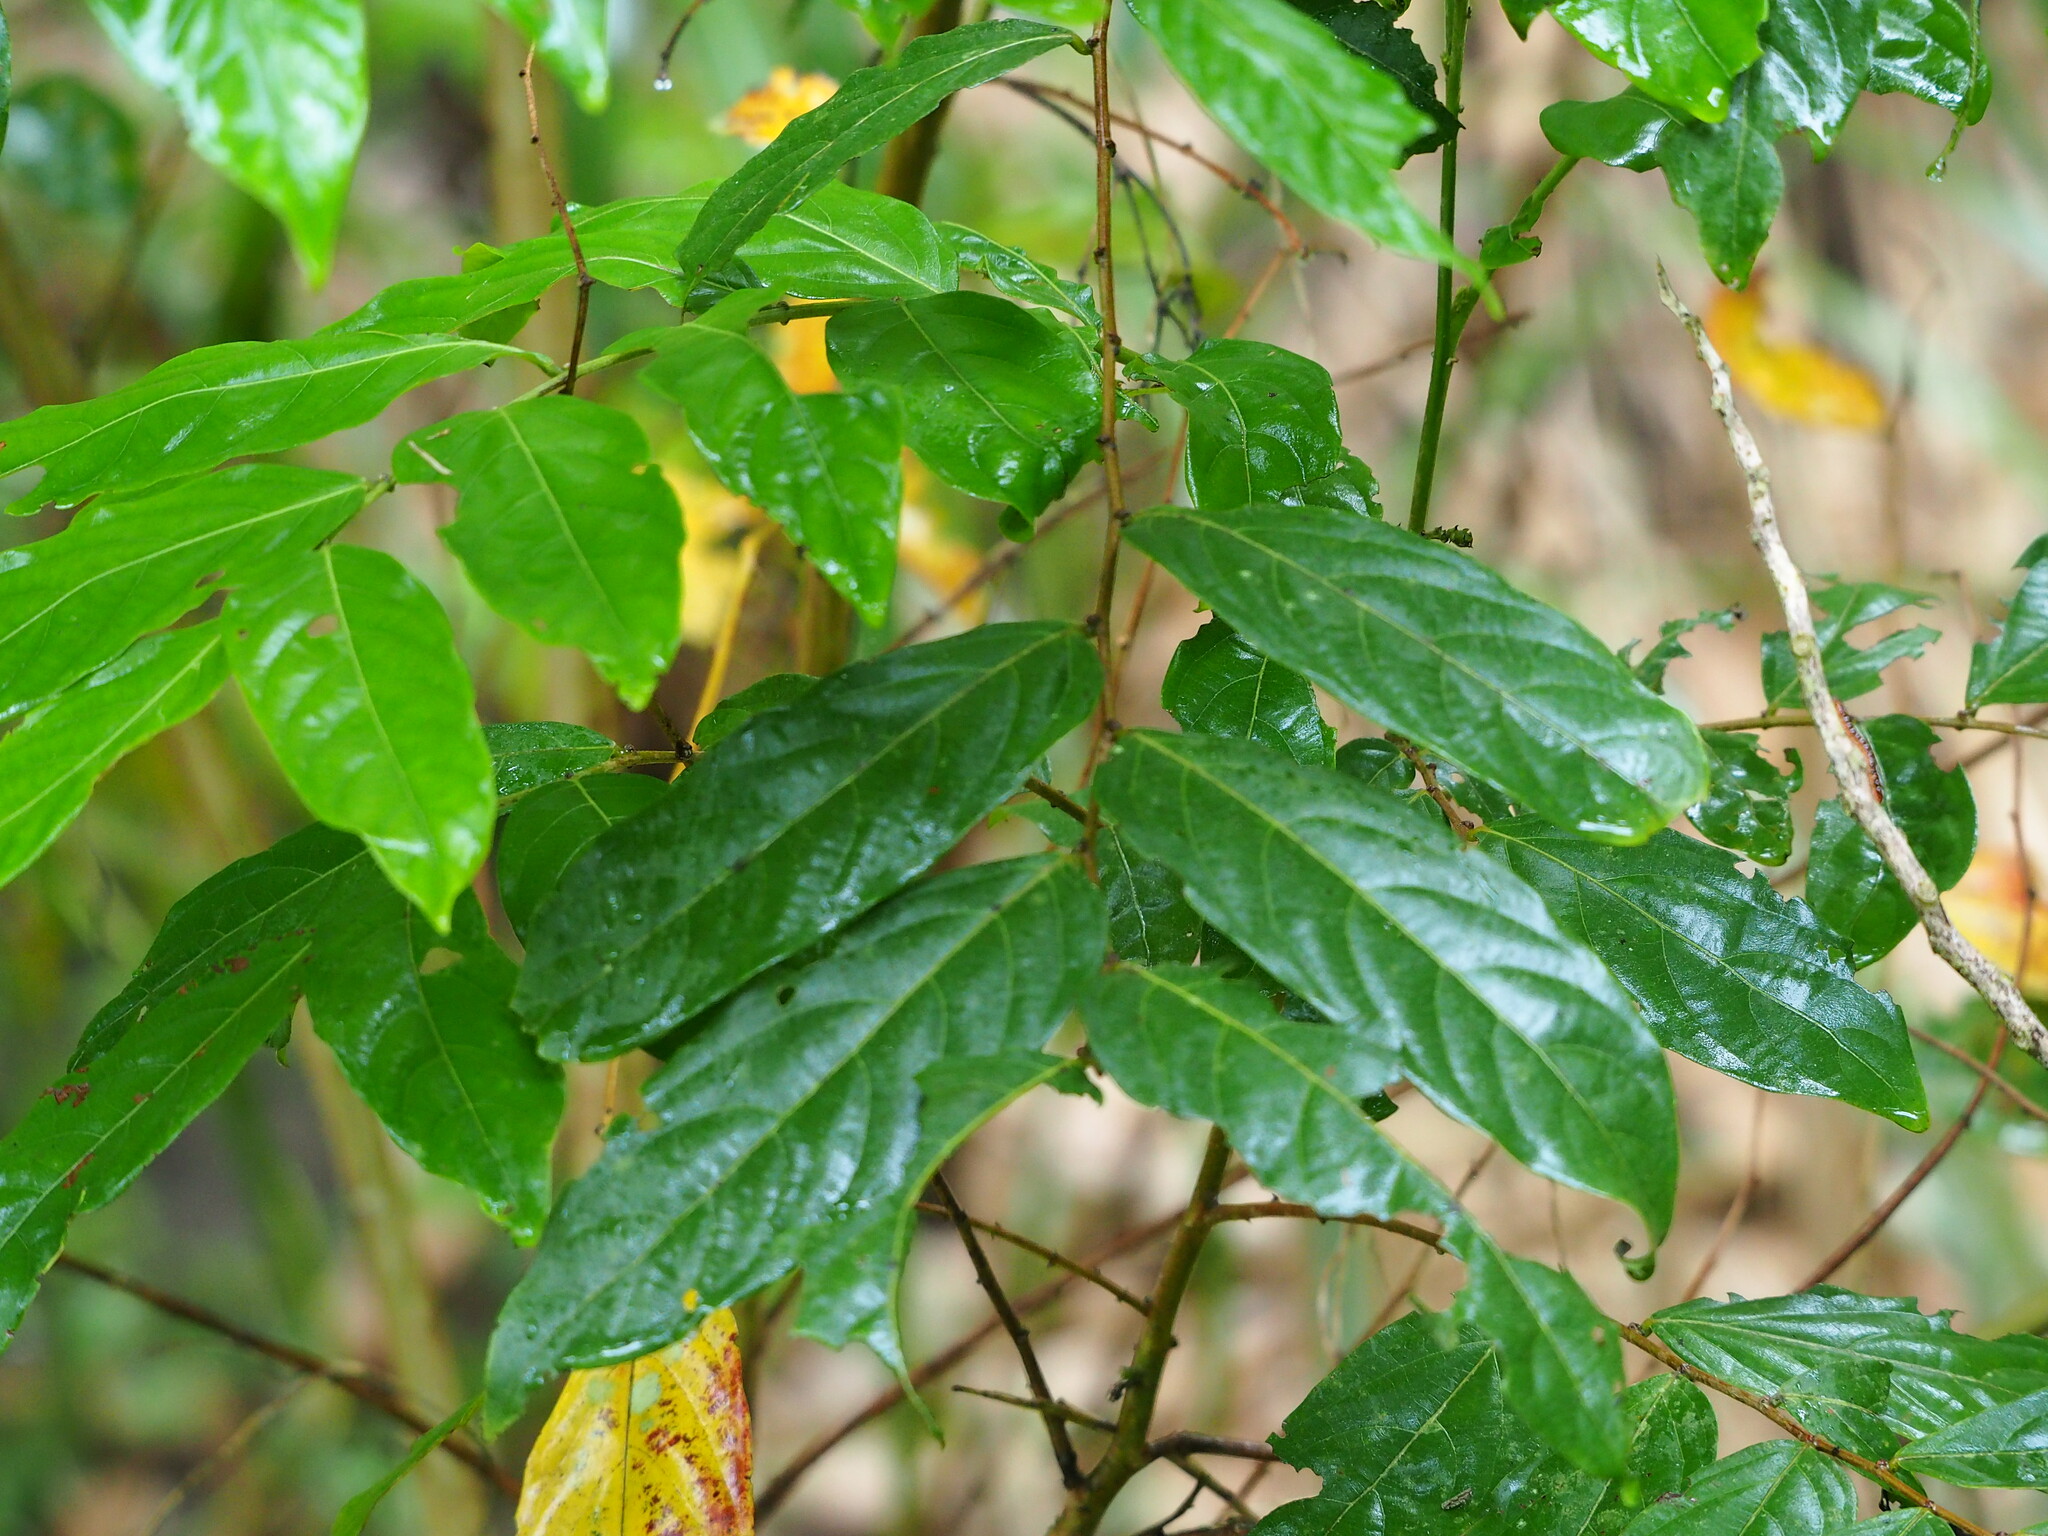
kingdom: Plantae
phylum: Tracheophyta
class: Magnoliopsida
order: Malpighiales
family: Phyllanthaceae
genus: Glochidion
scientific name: Glochidion philippicum
